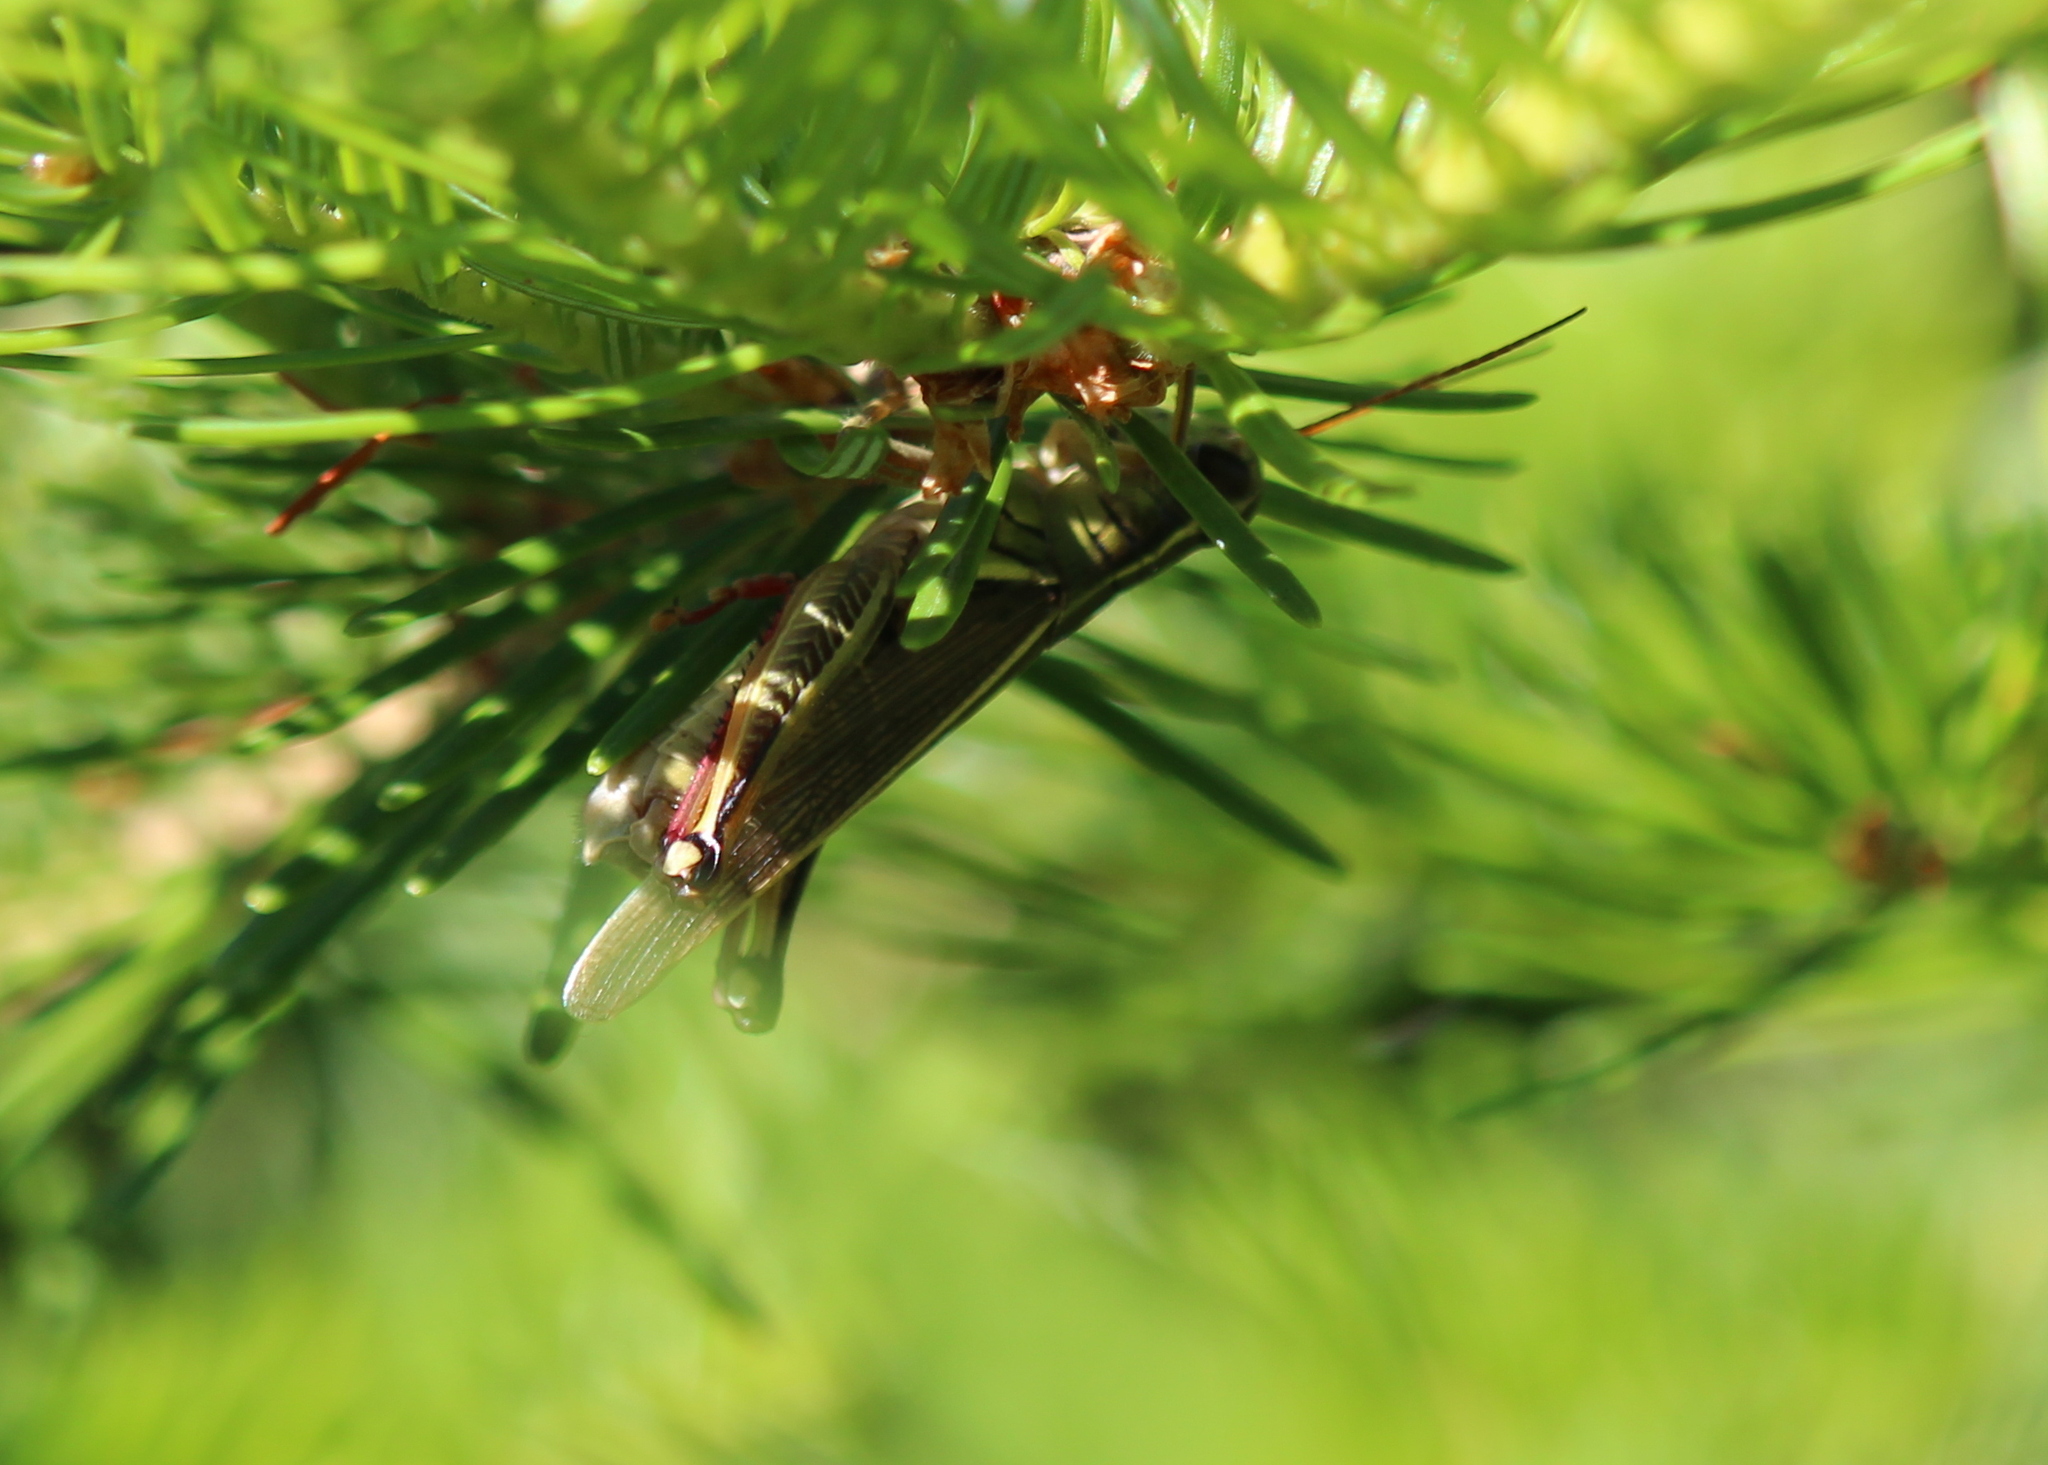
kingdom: Animalia
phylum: Arthropoda
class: Insecta
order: Orthoptera
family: Acrididae
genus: Melanoplus
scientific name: Melanoplus bivittatus
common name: Two-striped grasshopper
